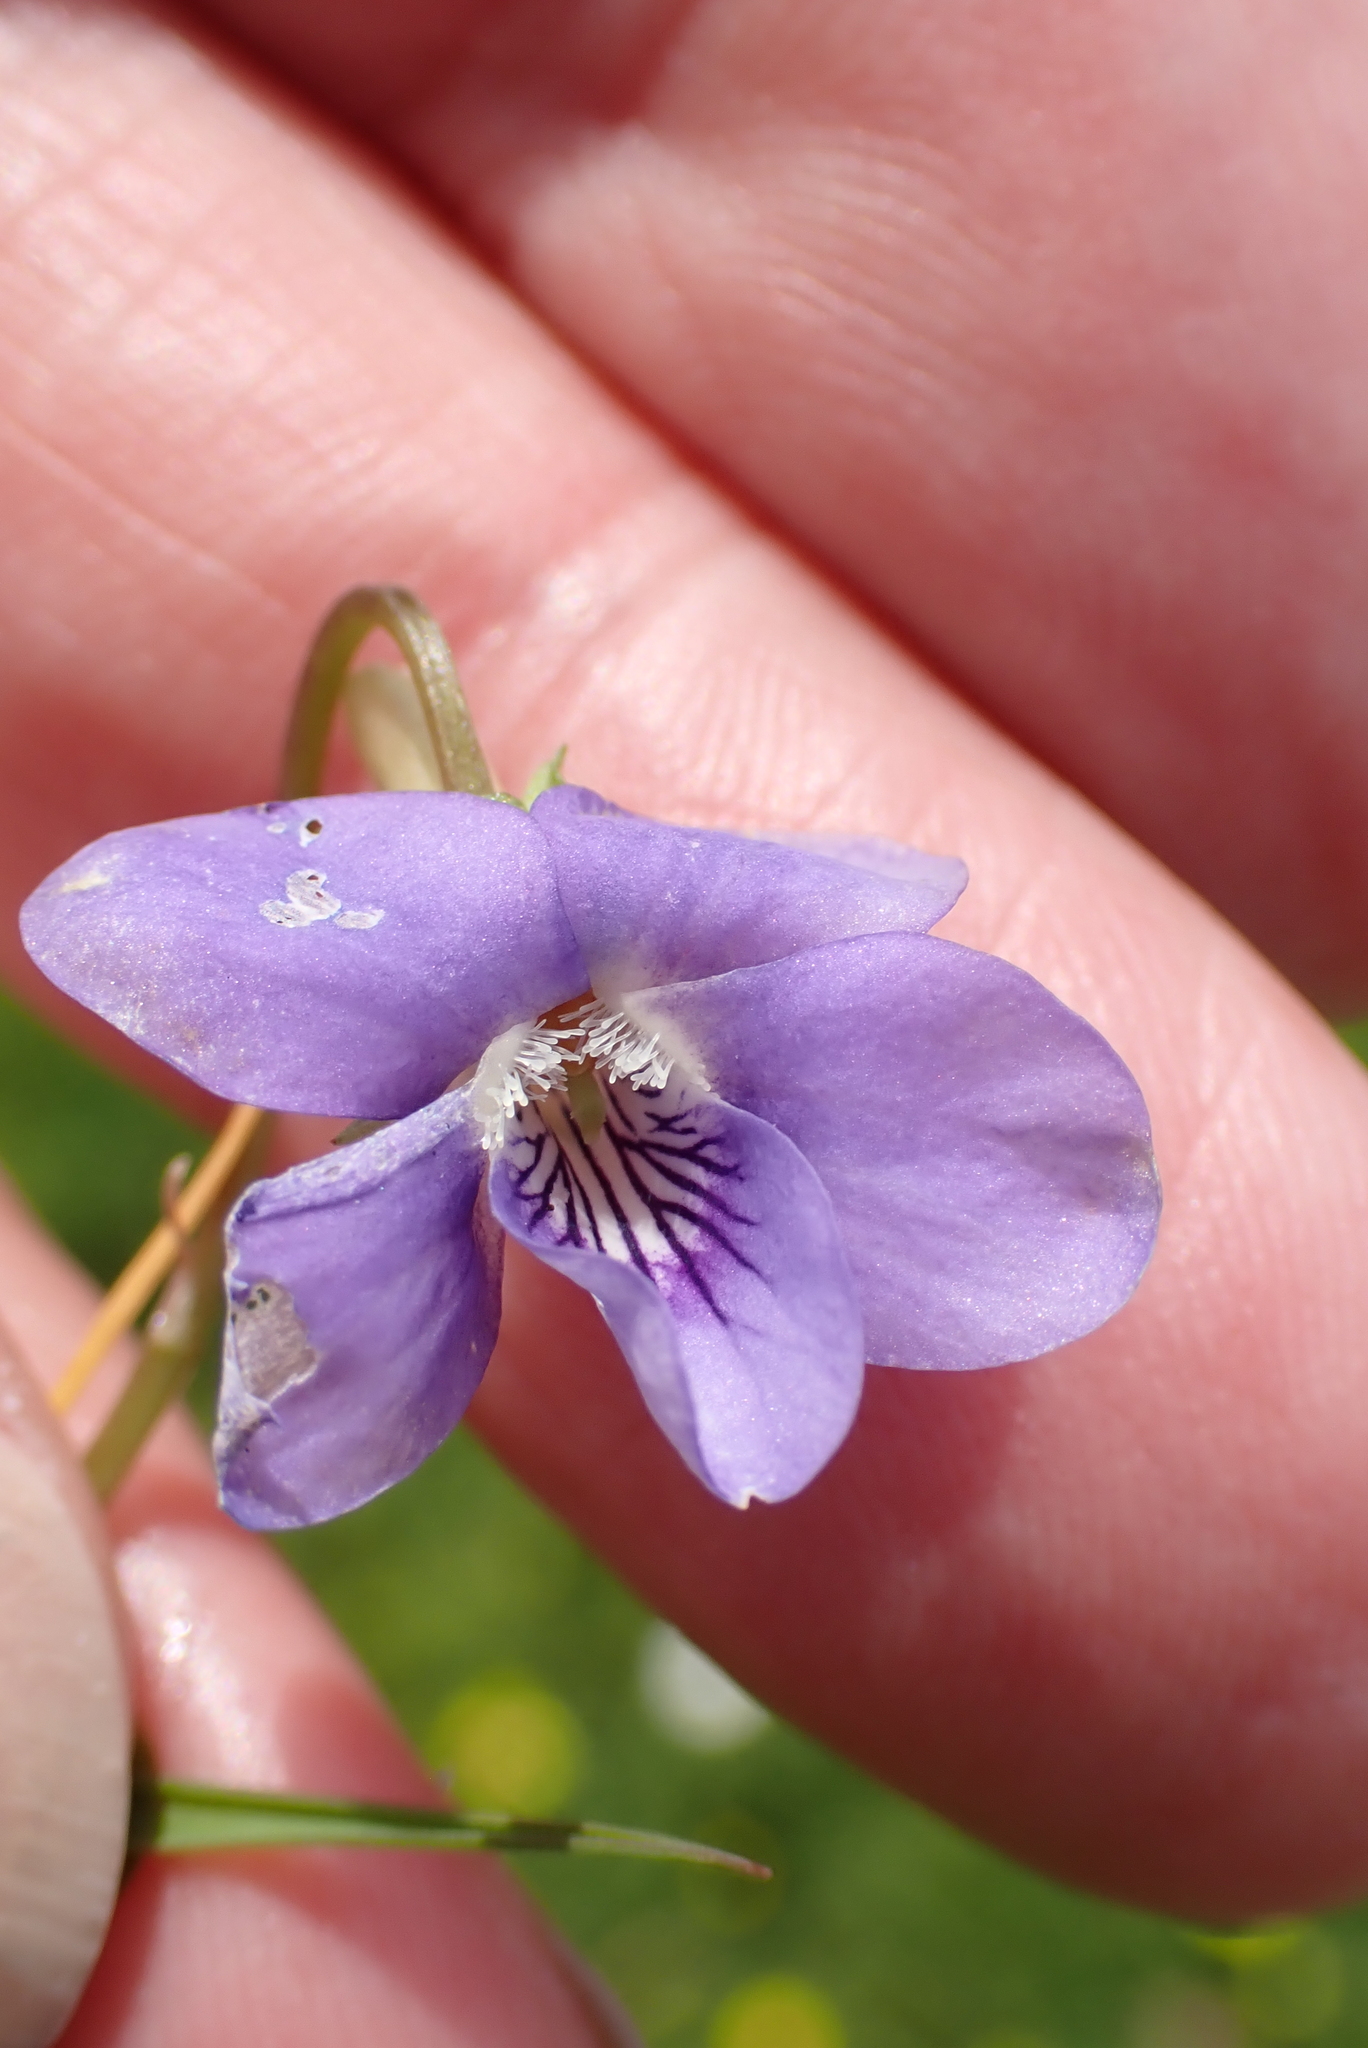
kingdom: Plantae
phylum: Tracheophyta
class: Magnoliopsida
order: Malpighiales
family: Violaceae
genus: Viola
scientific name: Viola riviniana
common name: Common dog-violet
